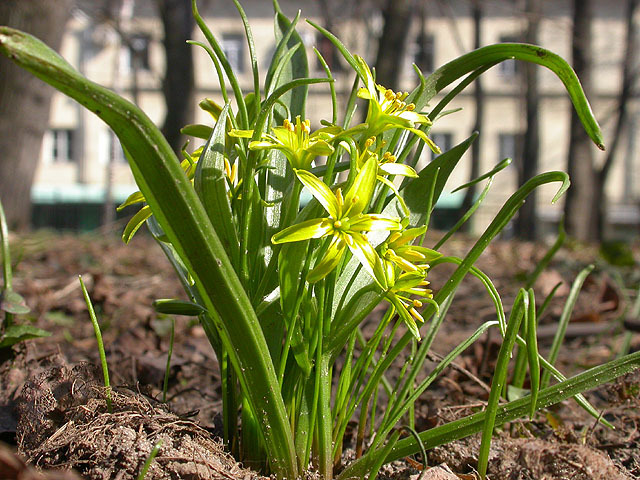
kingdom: Plantae
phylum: Tracheophyta
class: Liliopsida
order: Liliales
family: Liliaceae
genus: Gagea
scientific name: Gagea lutea
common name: Yellow star-of-bethlehem
